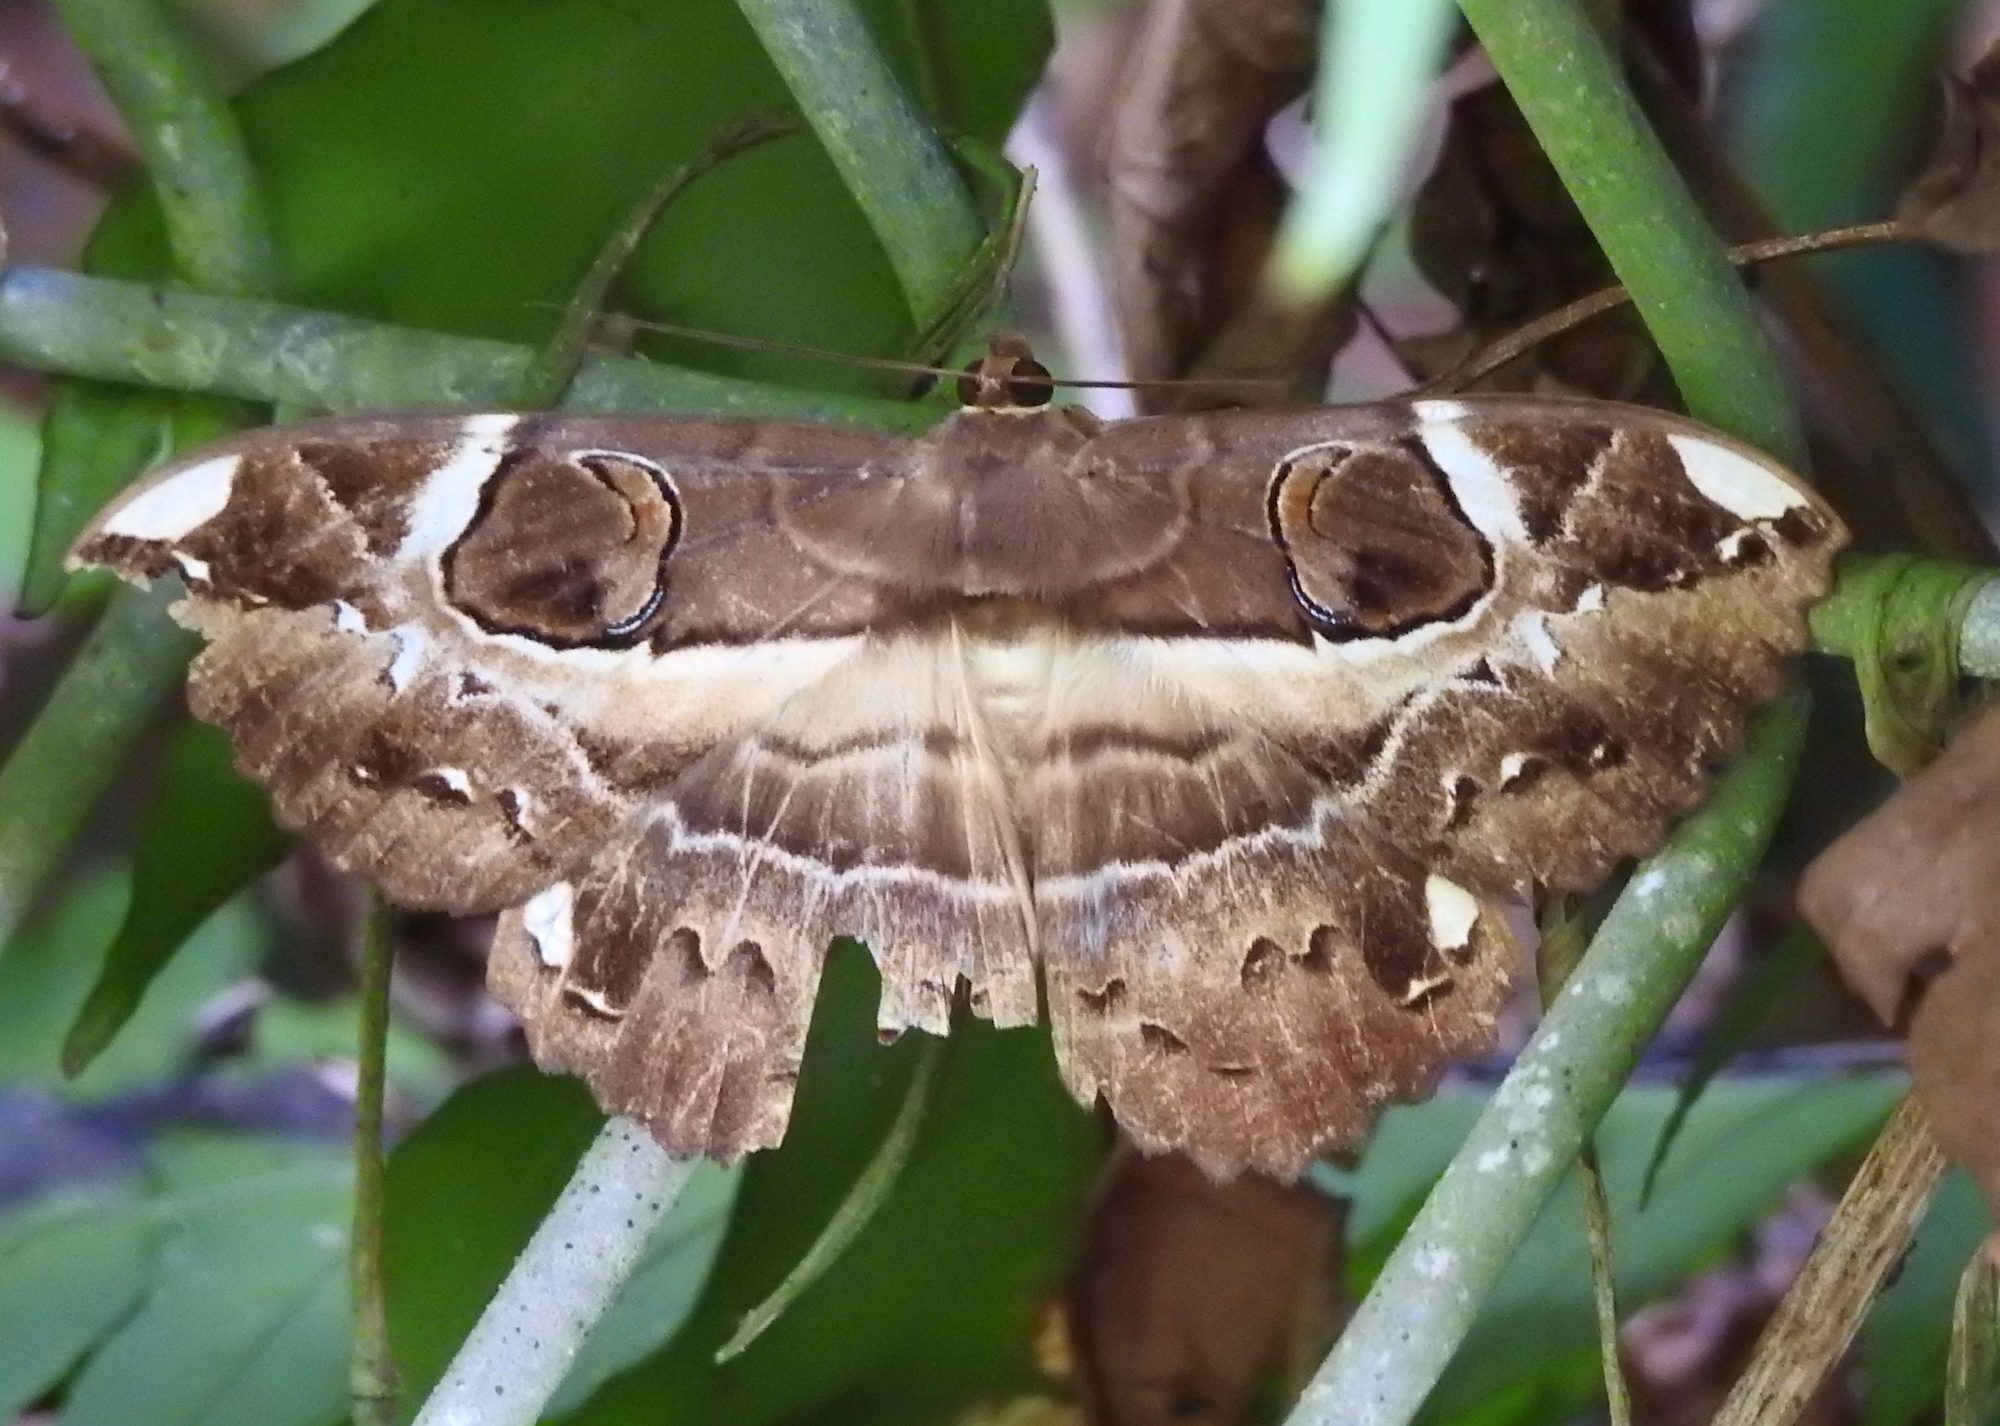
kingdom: Animalia
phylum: Arthropoda
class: Insecta
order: Lepidoptera
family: Erebidae
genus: Erebus
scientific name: Erebus ephesperis
